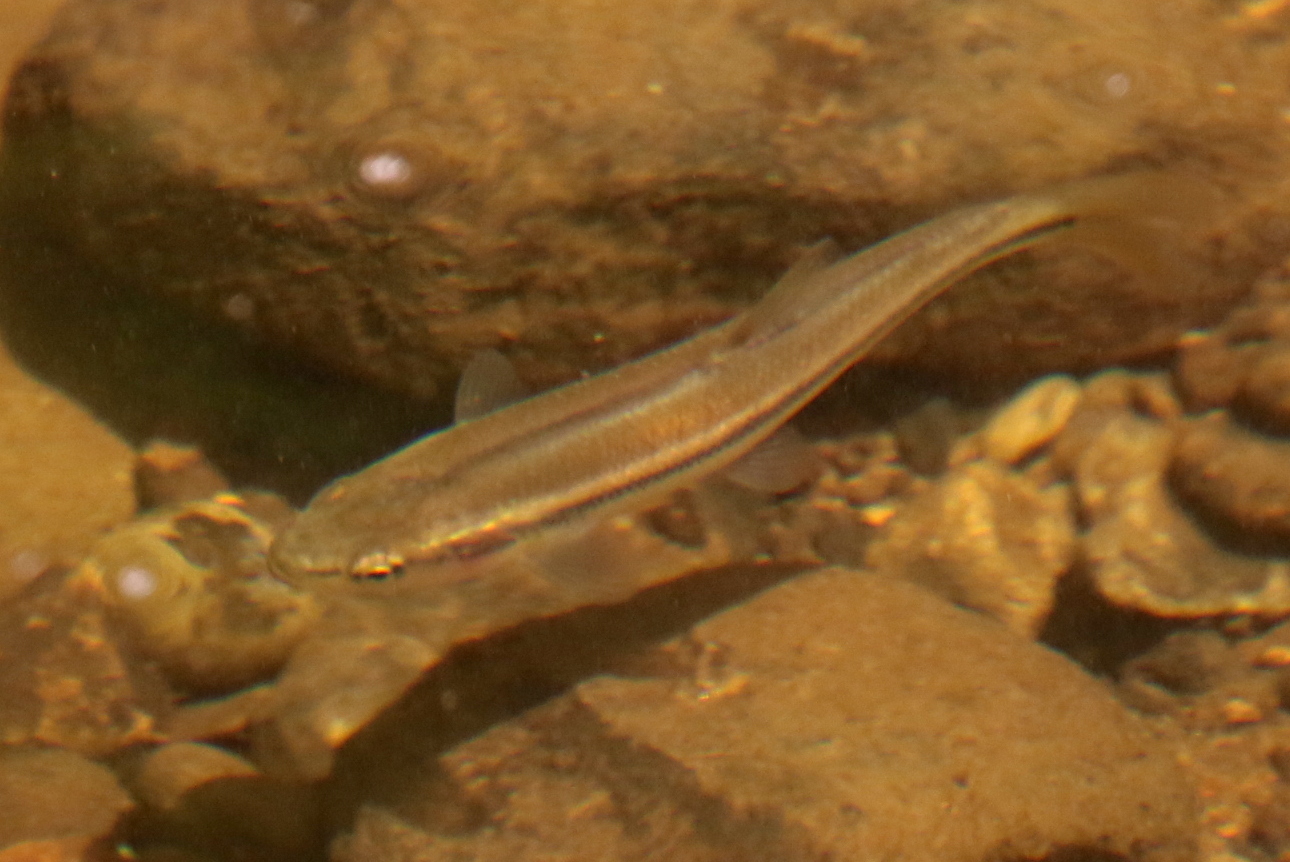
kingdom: Animalia
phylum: Chordata
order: Cypriniformes
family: Cyprinidae
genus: Semotilus
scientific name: Semotilus atromaculatus
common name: Creek chub
